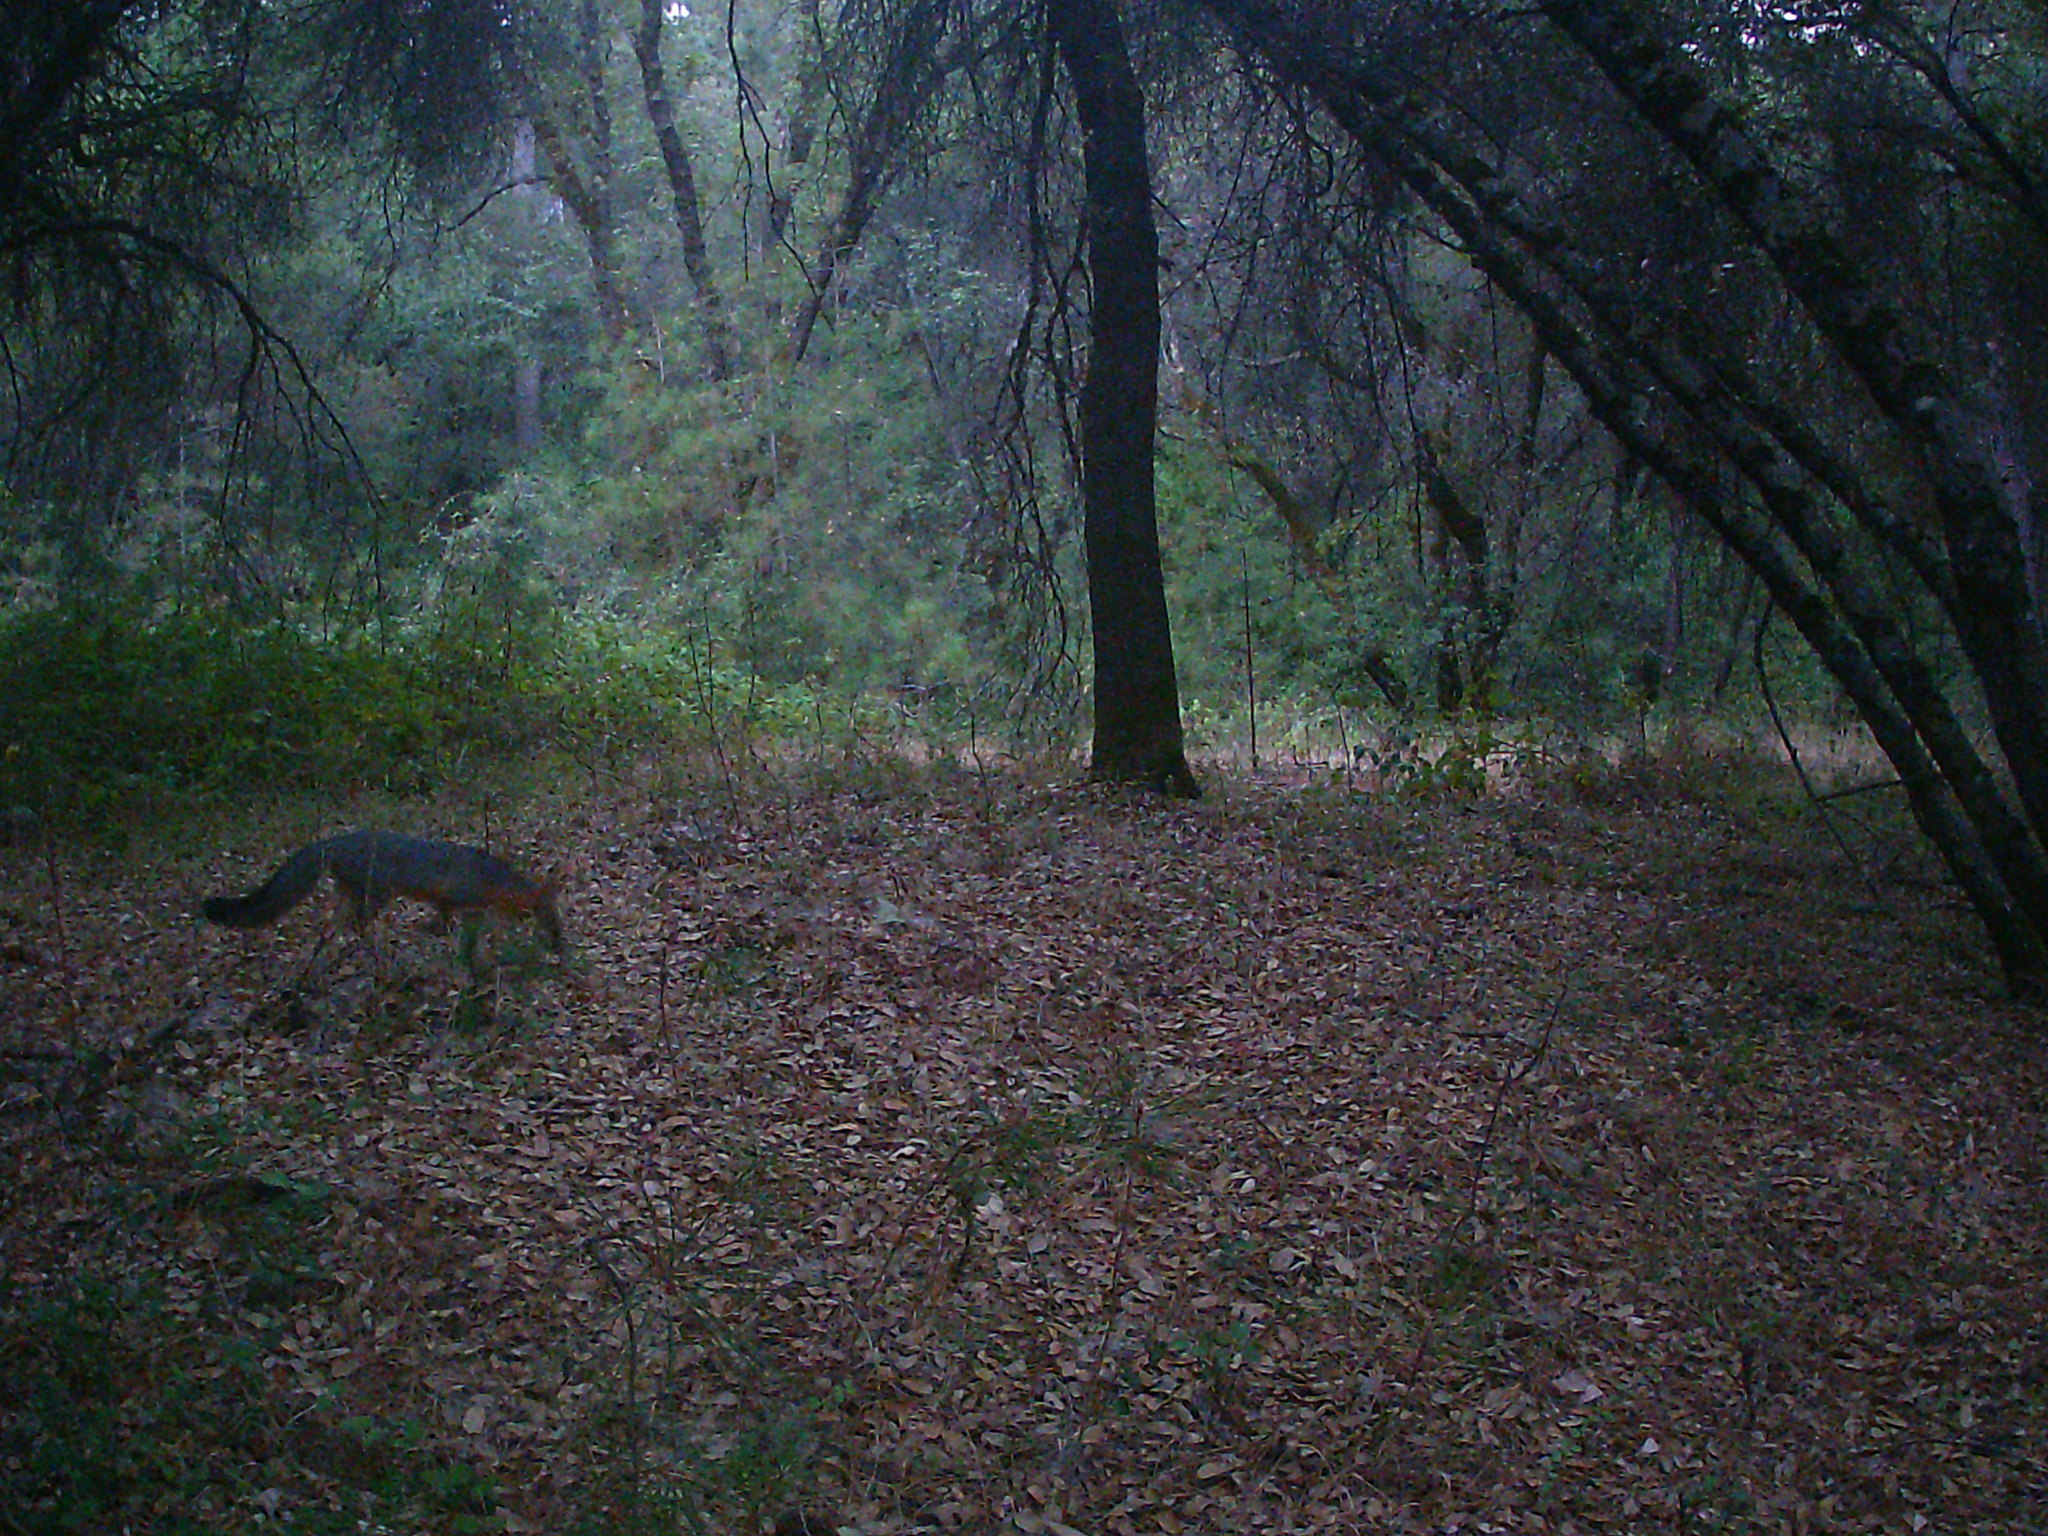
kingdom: Animalia
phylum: Chordata
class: Mammalia
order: Carnivora
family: Canidae
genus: Urocyon
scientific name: Urocyon cinereoargenteus
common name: Gray fox
